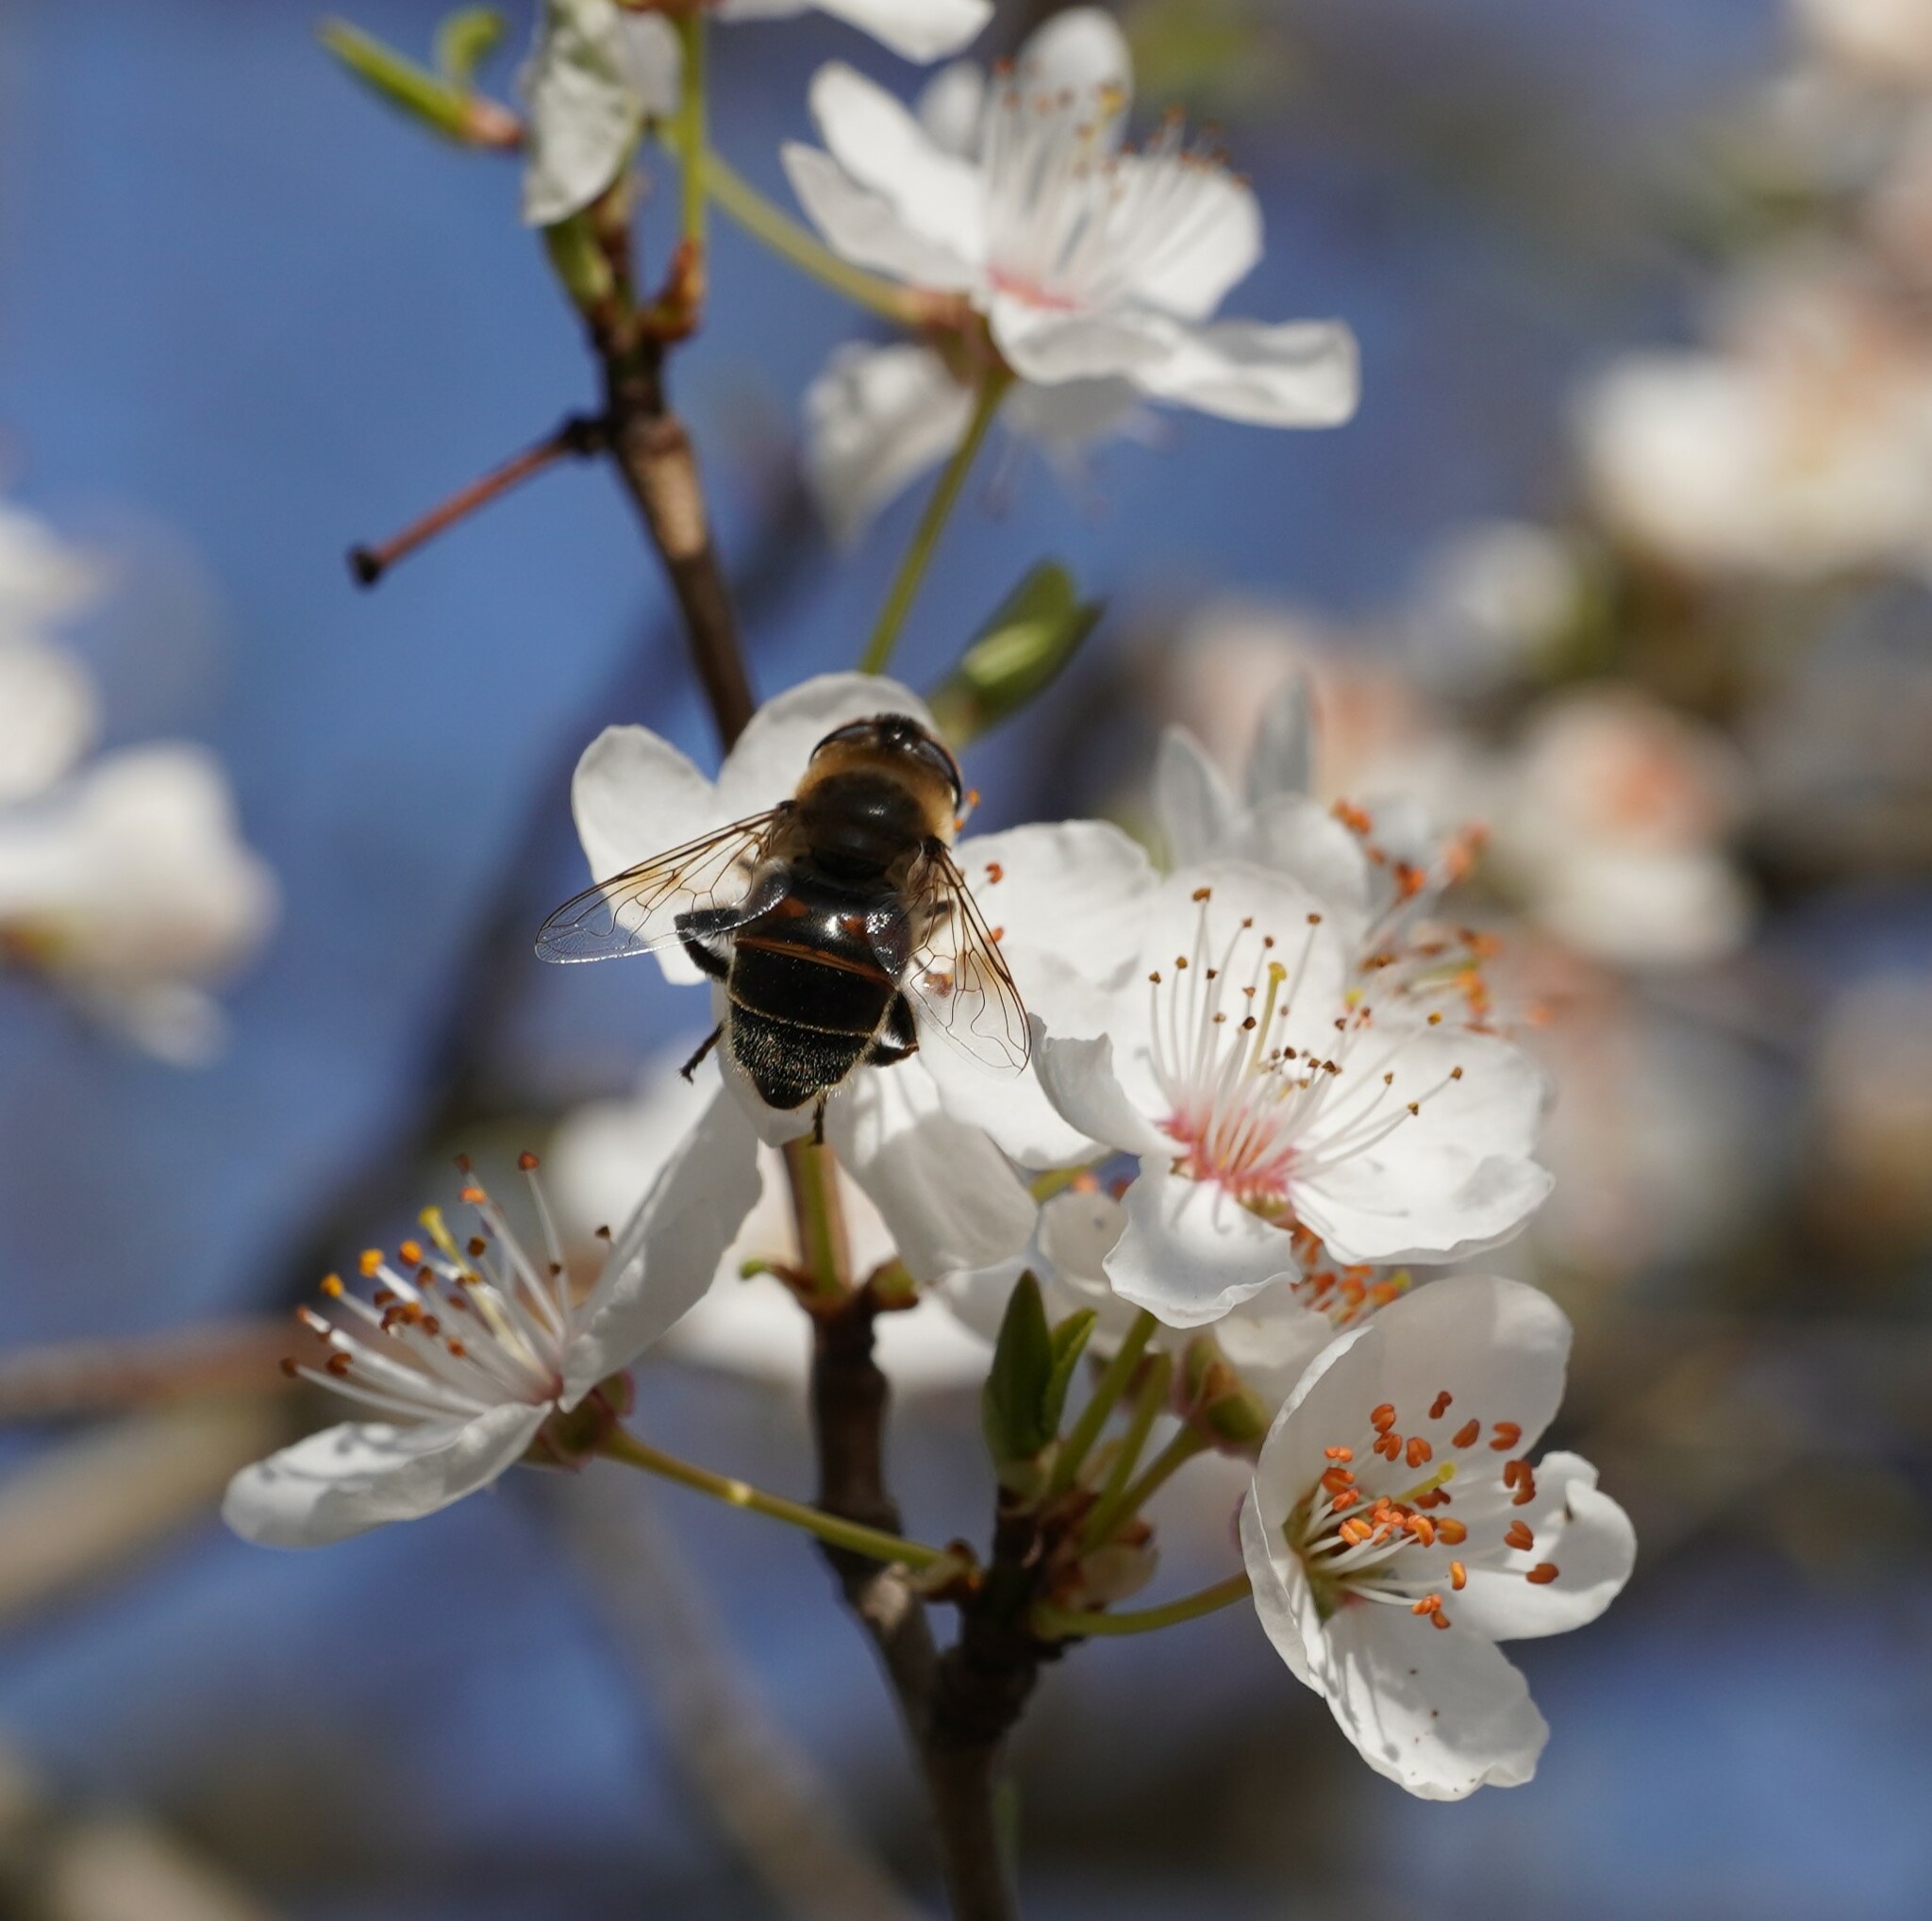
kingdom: Animalia
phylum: Arthropoda
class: Insecta
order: Diptera
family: Syrphidae
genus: Eristalis
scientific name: Eristalis tenax
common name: Drone fly
